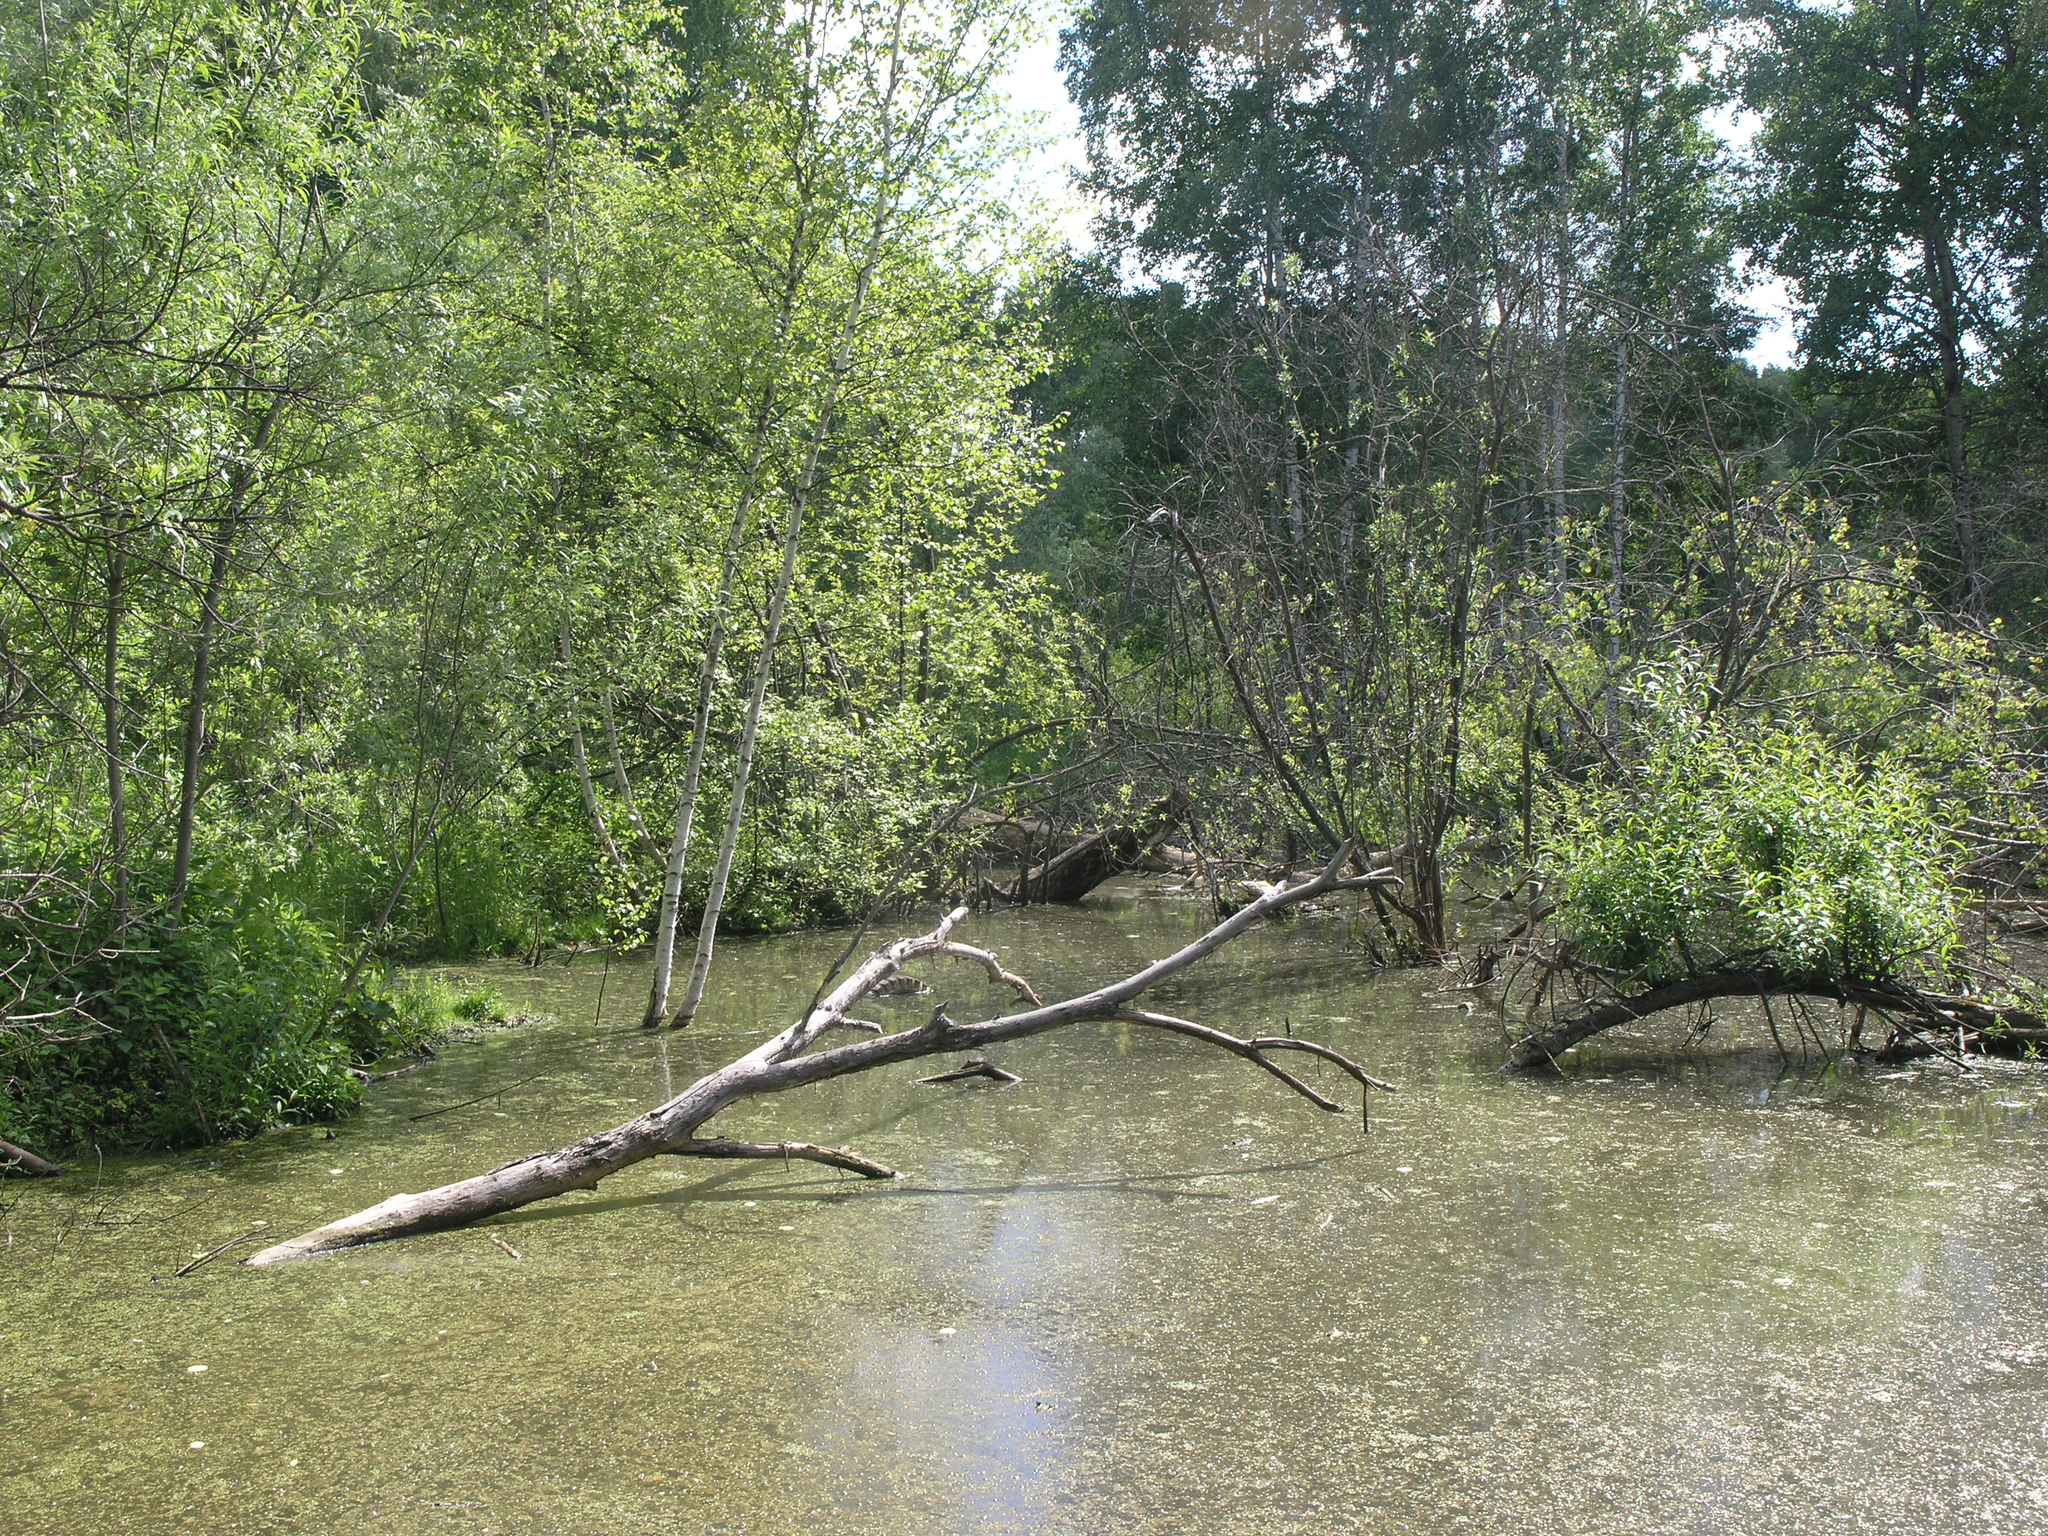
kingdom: Animalia
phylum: Chordata
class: Mammalia
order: Rodentia
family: Castoridae
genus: Castor
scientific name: Castor fiber
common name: Eurasian beaver
